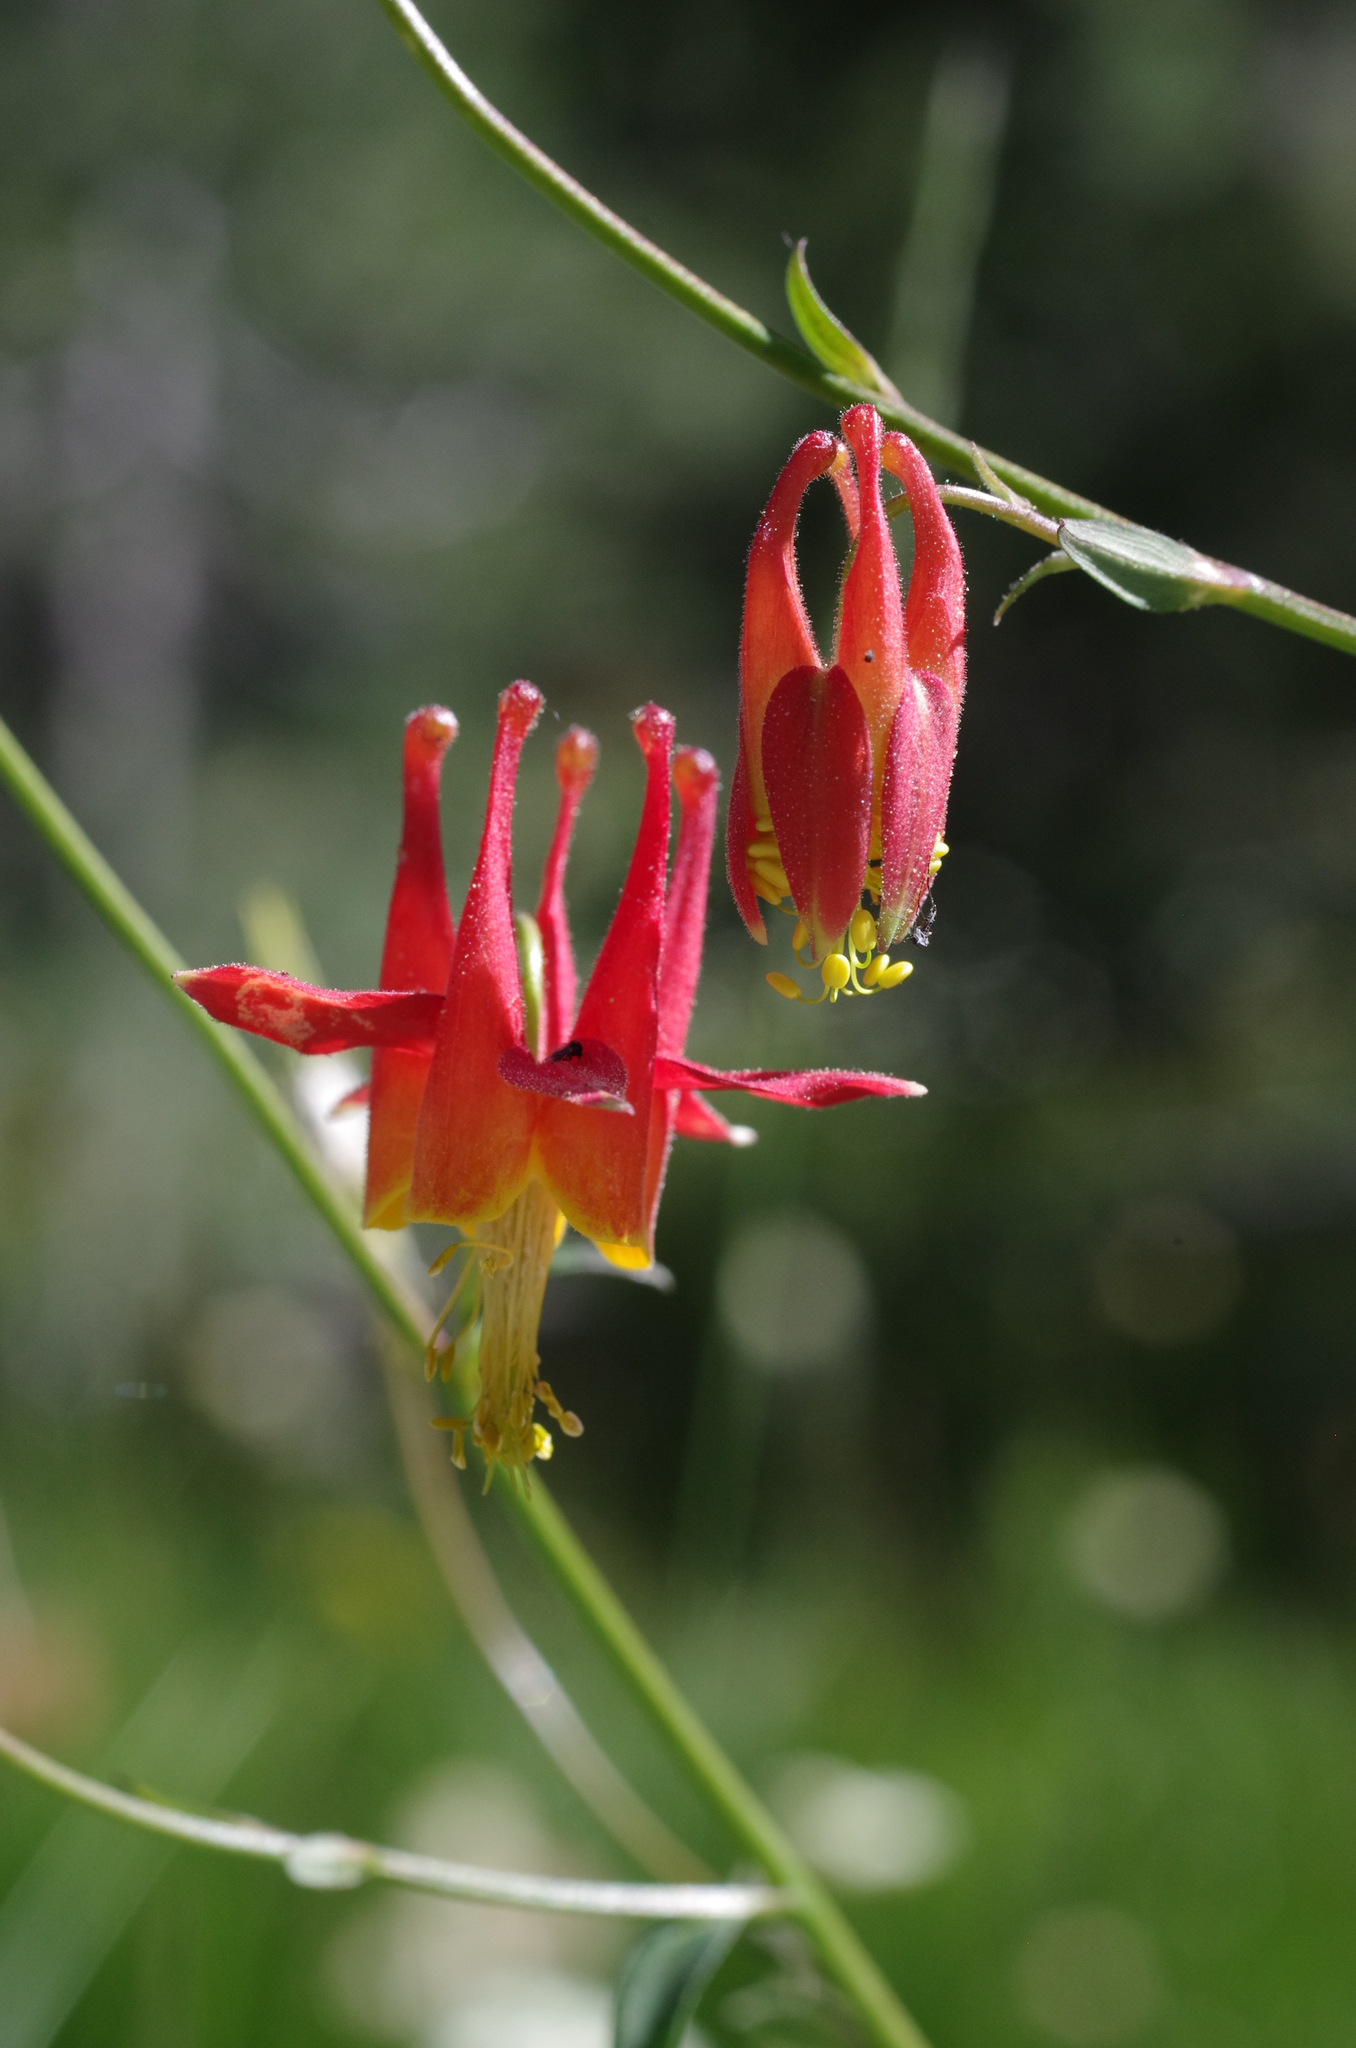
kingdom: Plantae
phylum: Tracheophyta
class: Magnoliopsida
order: Ranunculales
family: Ranunculaceae
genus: Aquilegia
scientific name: Aquilegia formosa
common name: Sitka columbine
